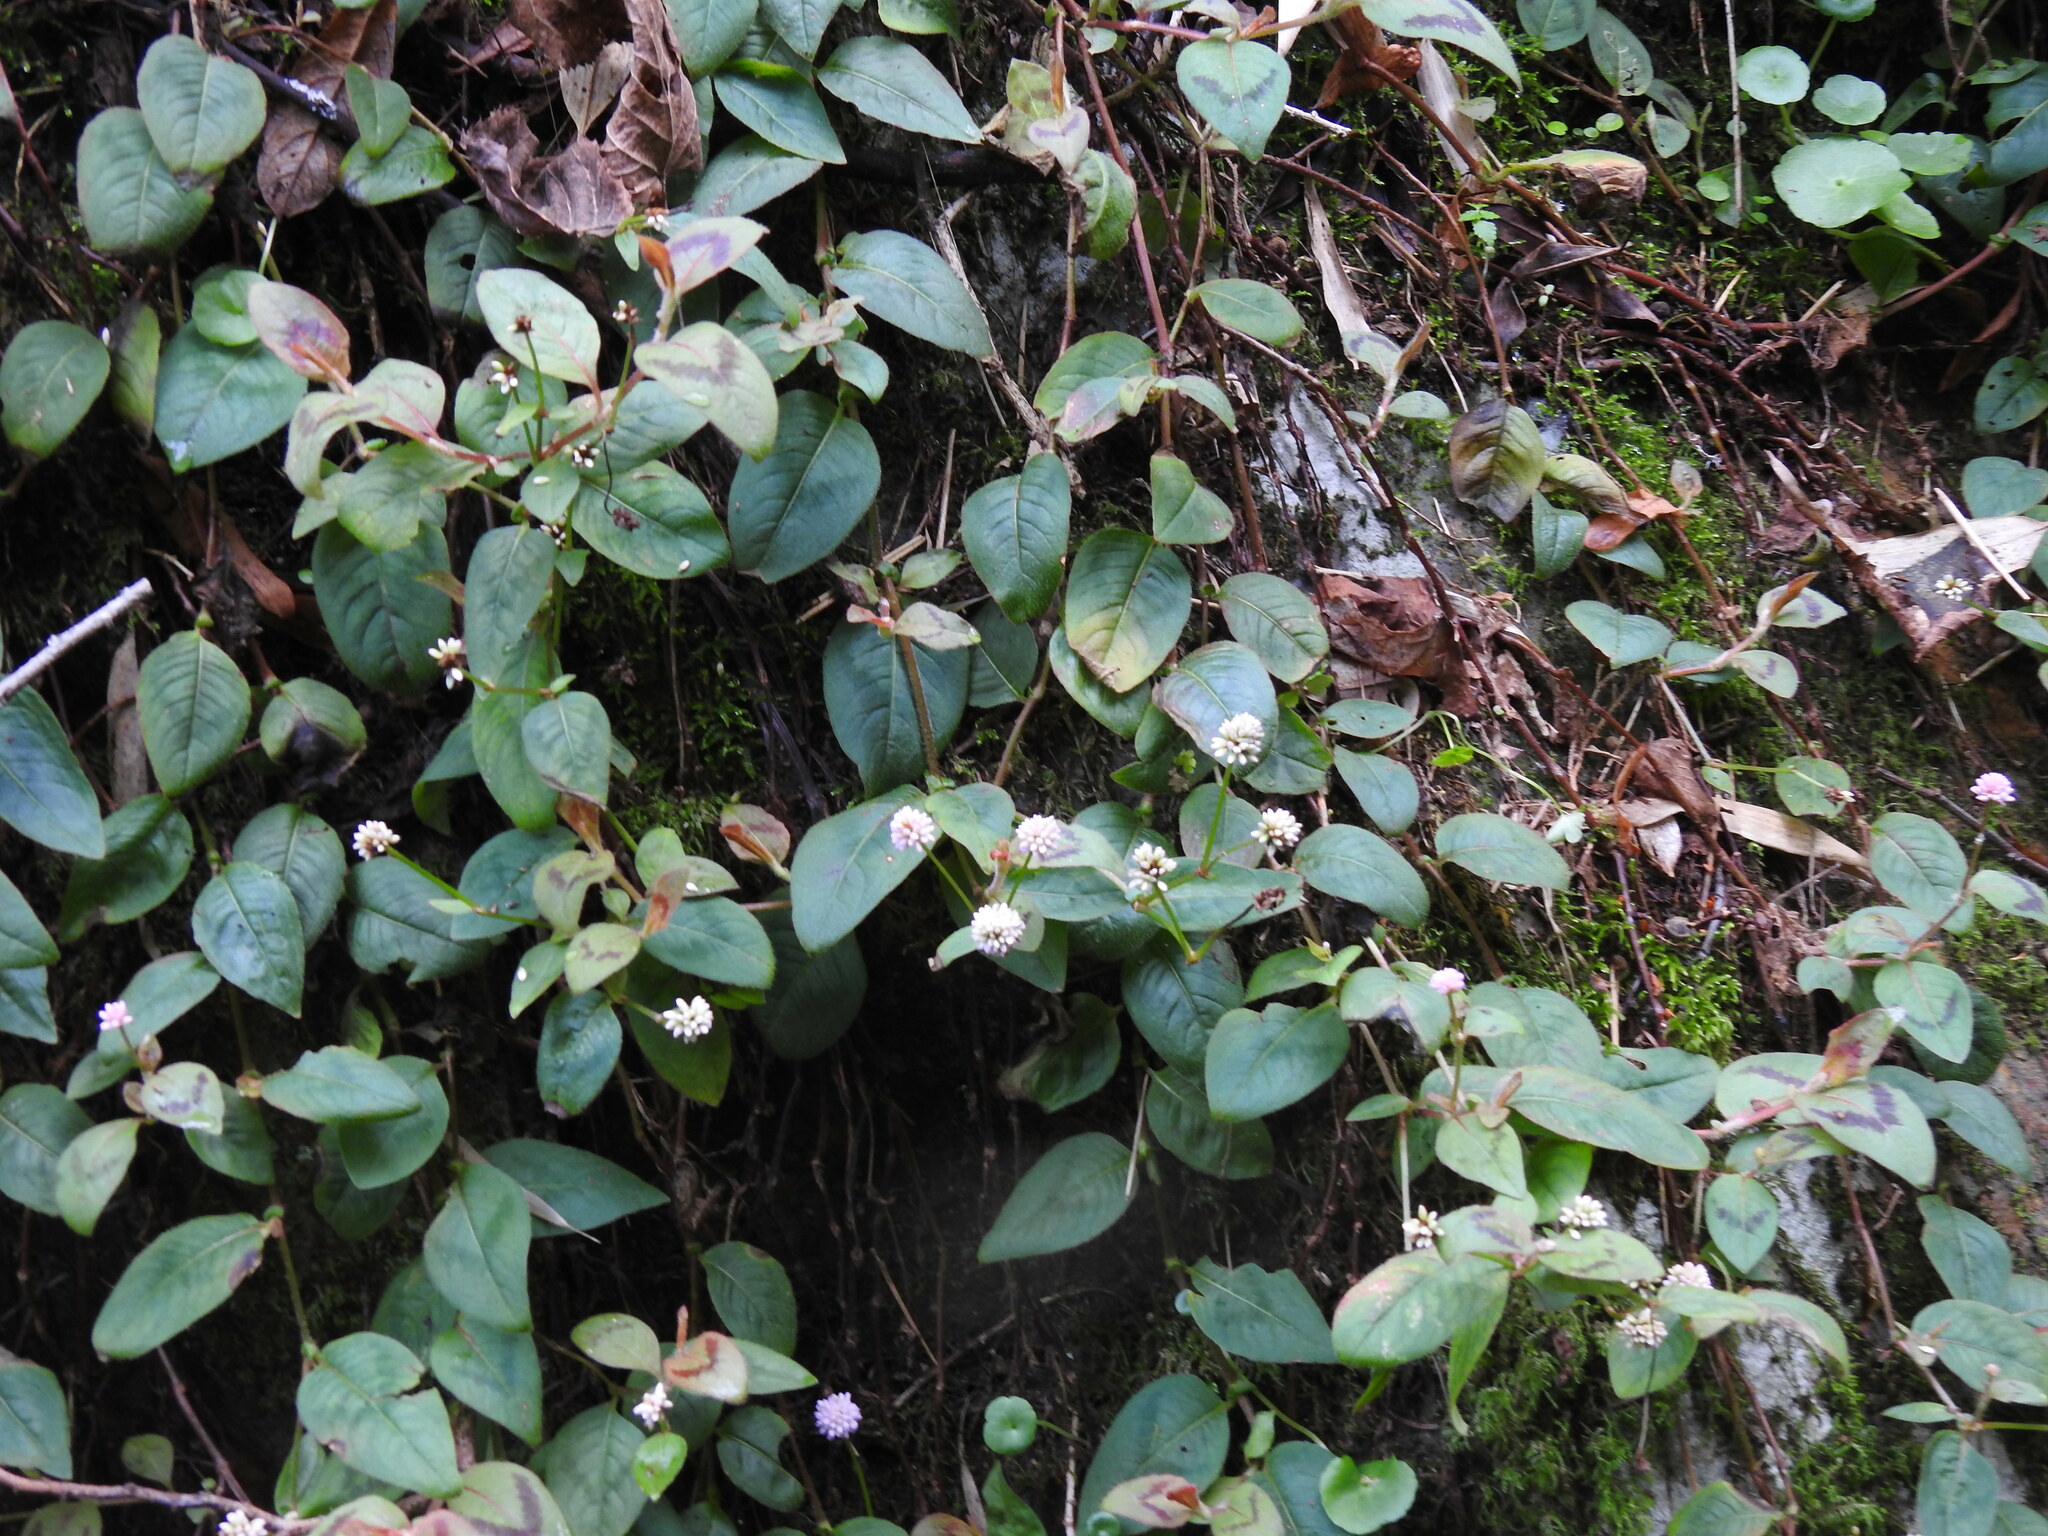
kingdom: Plantae
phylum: Tracheophyta
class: Magnoliopsida
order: Caryophyllales
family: Polygonaceae
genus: Persicaria
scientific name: Persicaria capitata
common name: Pinkhead smartweed
